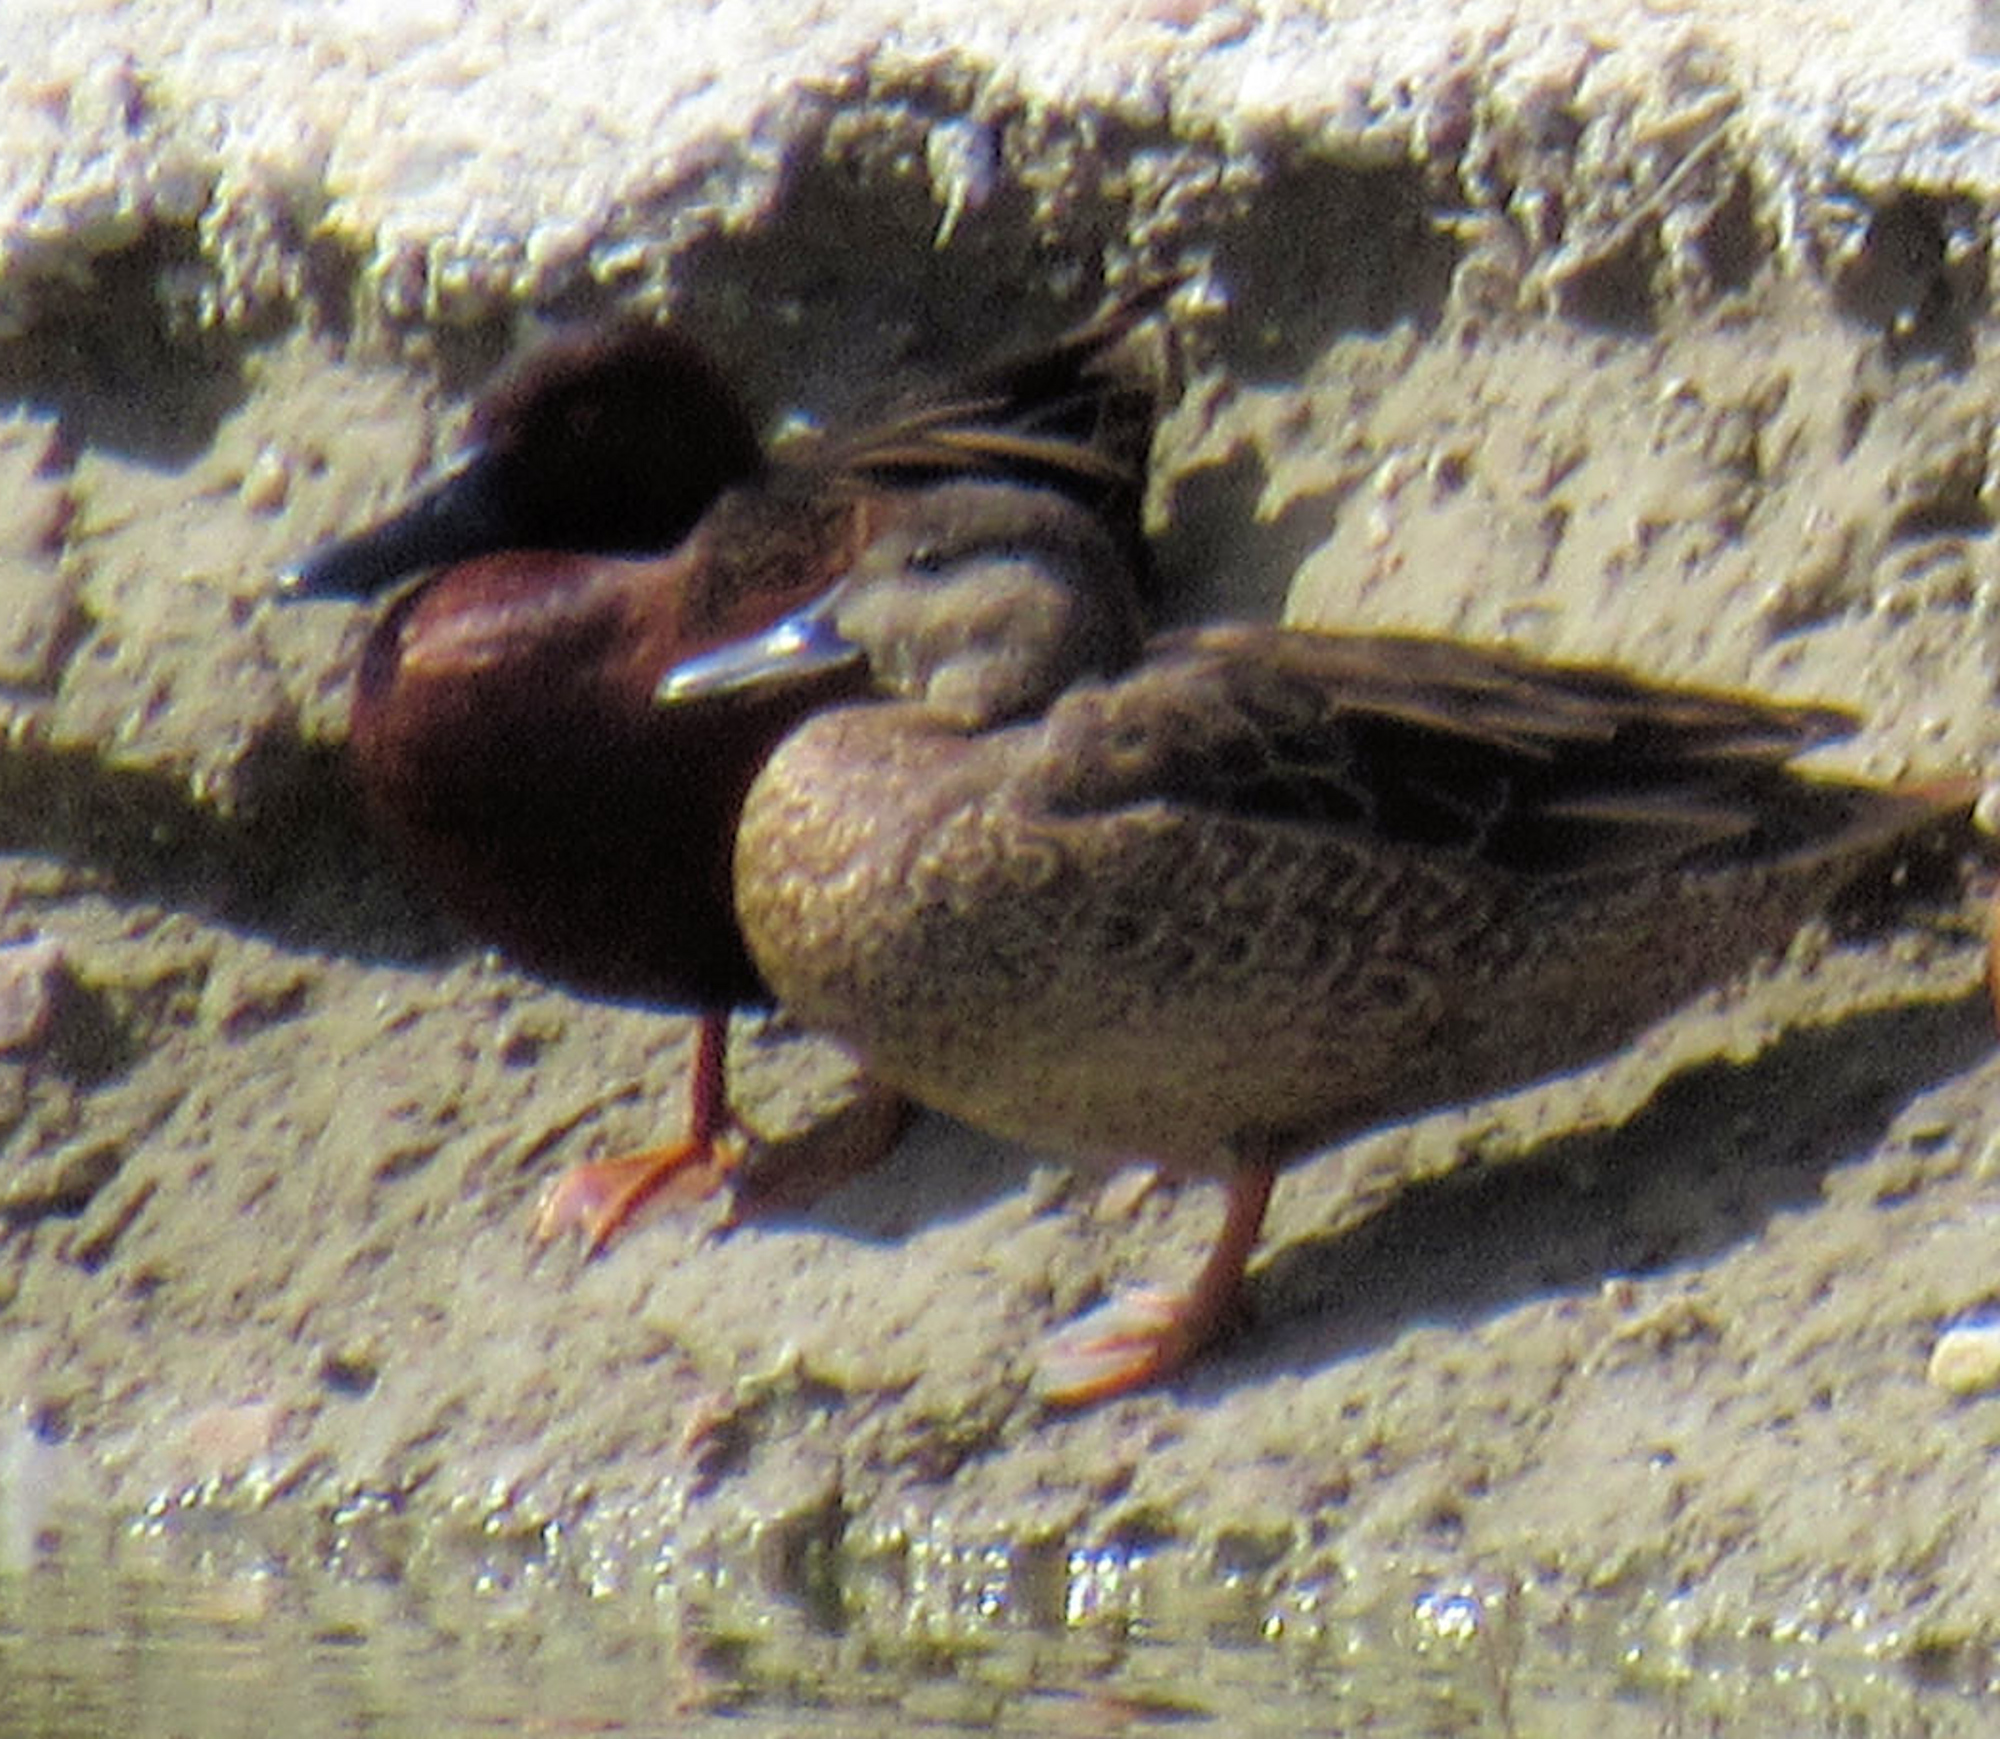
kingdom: Animalia
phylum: Chordata
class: Aves
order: Anseriformes
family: Anatidae
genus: Spatula
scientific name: Spatula cyanoptera
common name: Cinnamon teal
